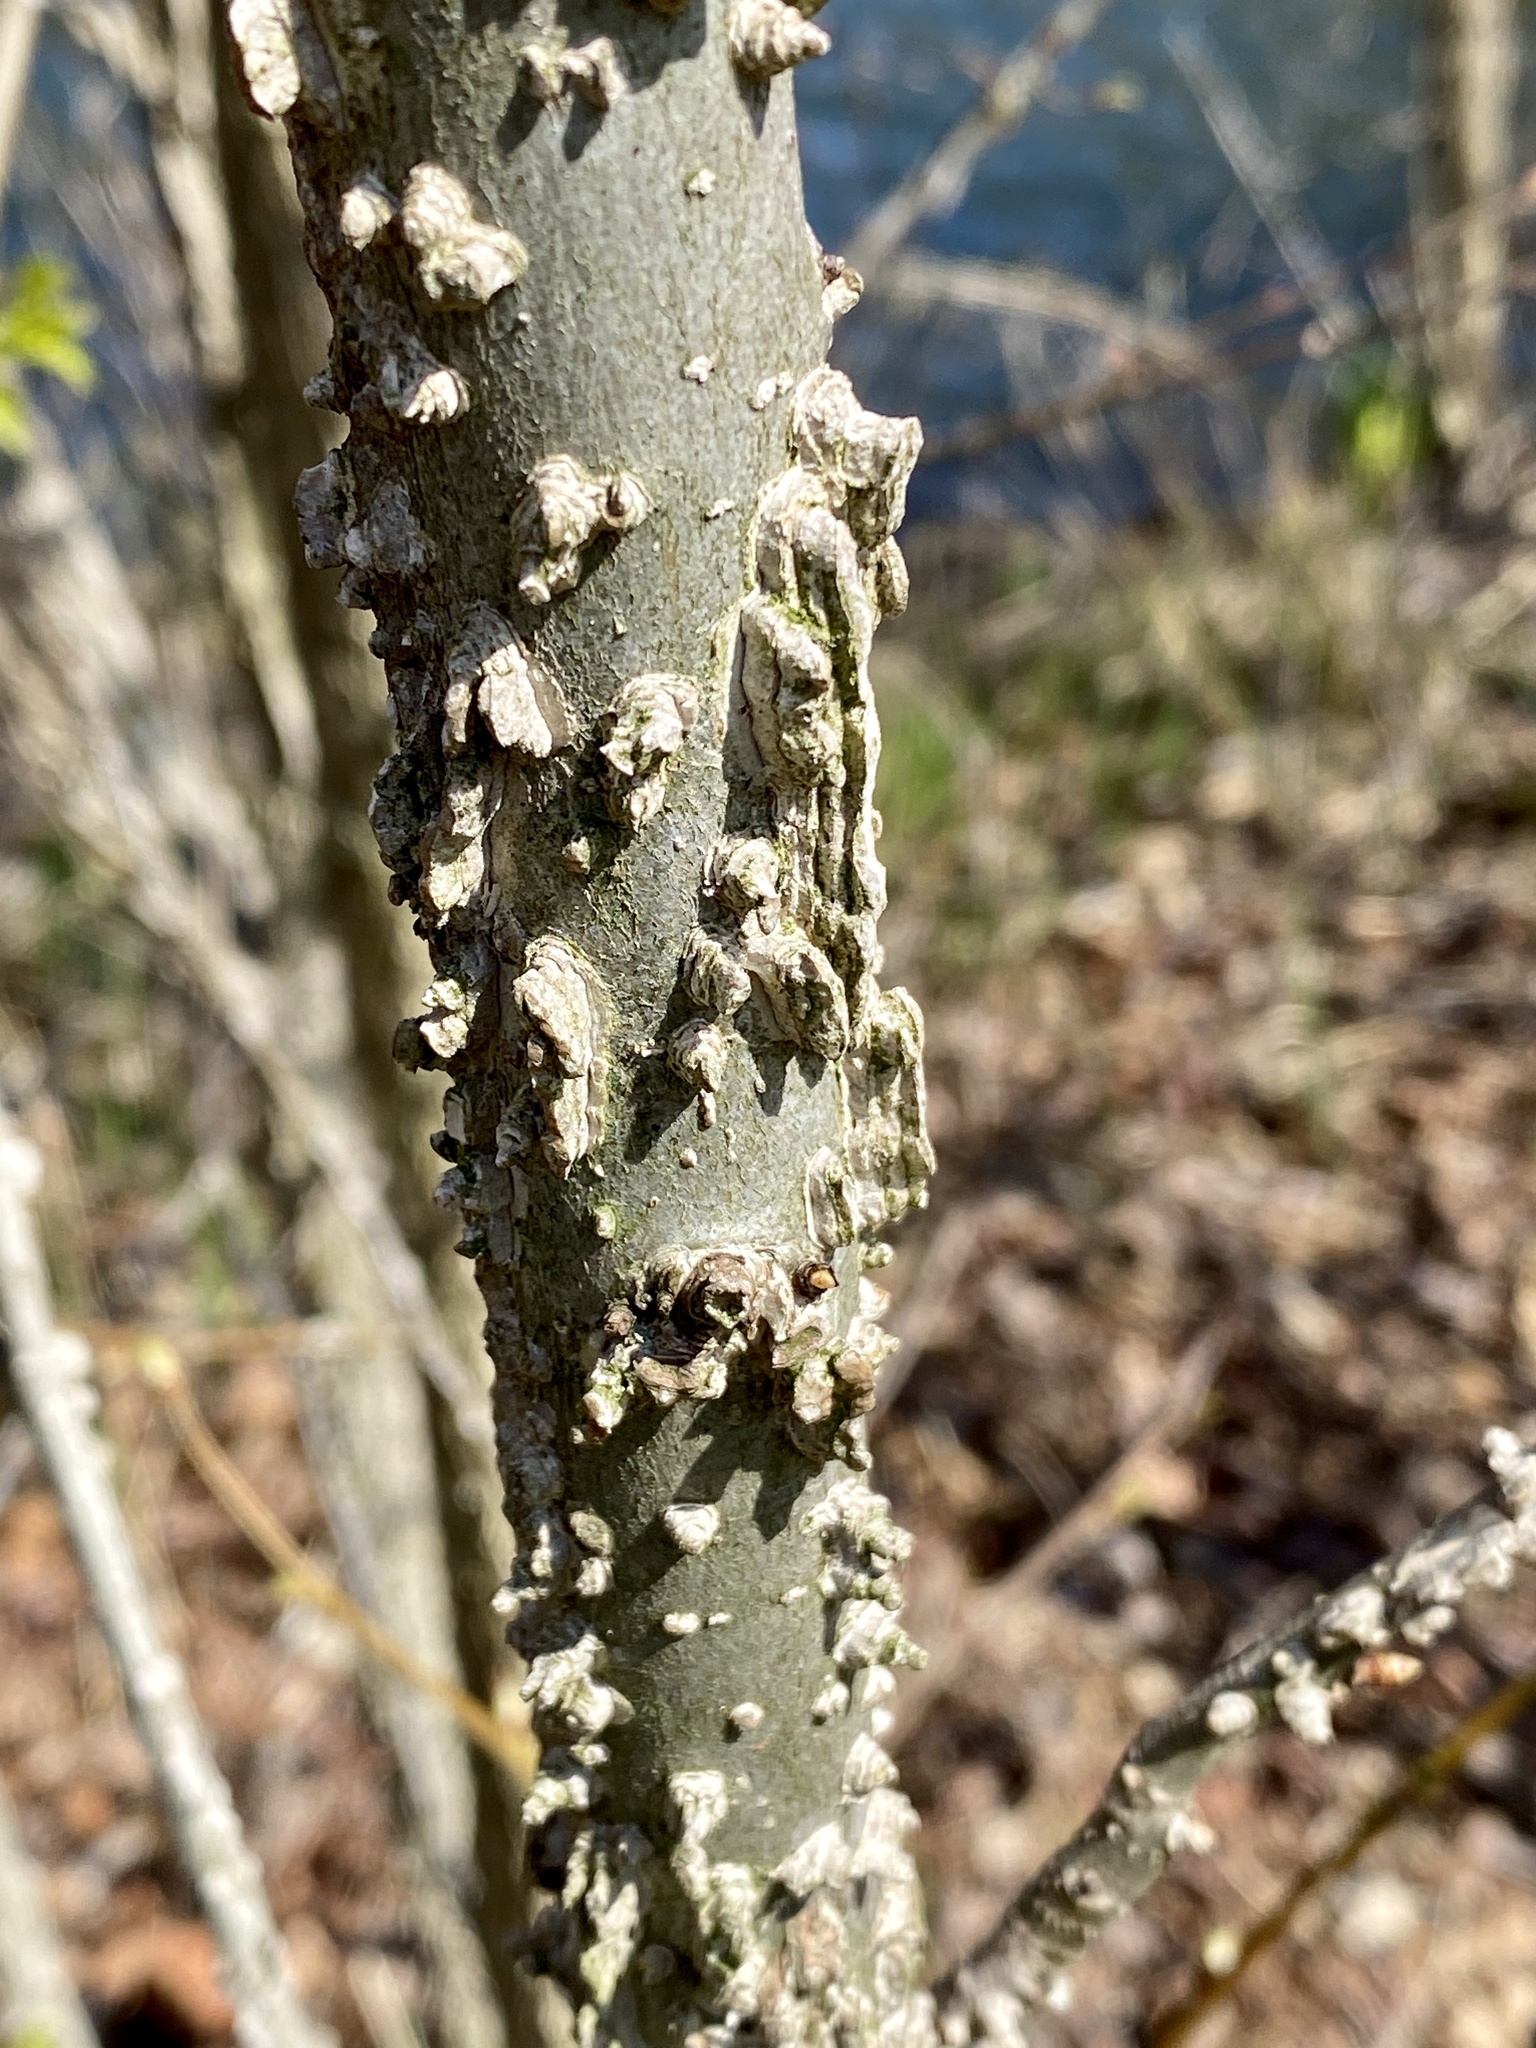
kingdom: Plantae
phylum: Tracheophyta
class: Magnoliopsida
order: Saxifragales
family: Altingiaceae
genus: Liquidambar
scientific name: Liquidambar styraciflua
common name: Sweet gum
